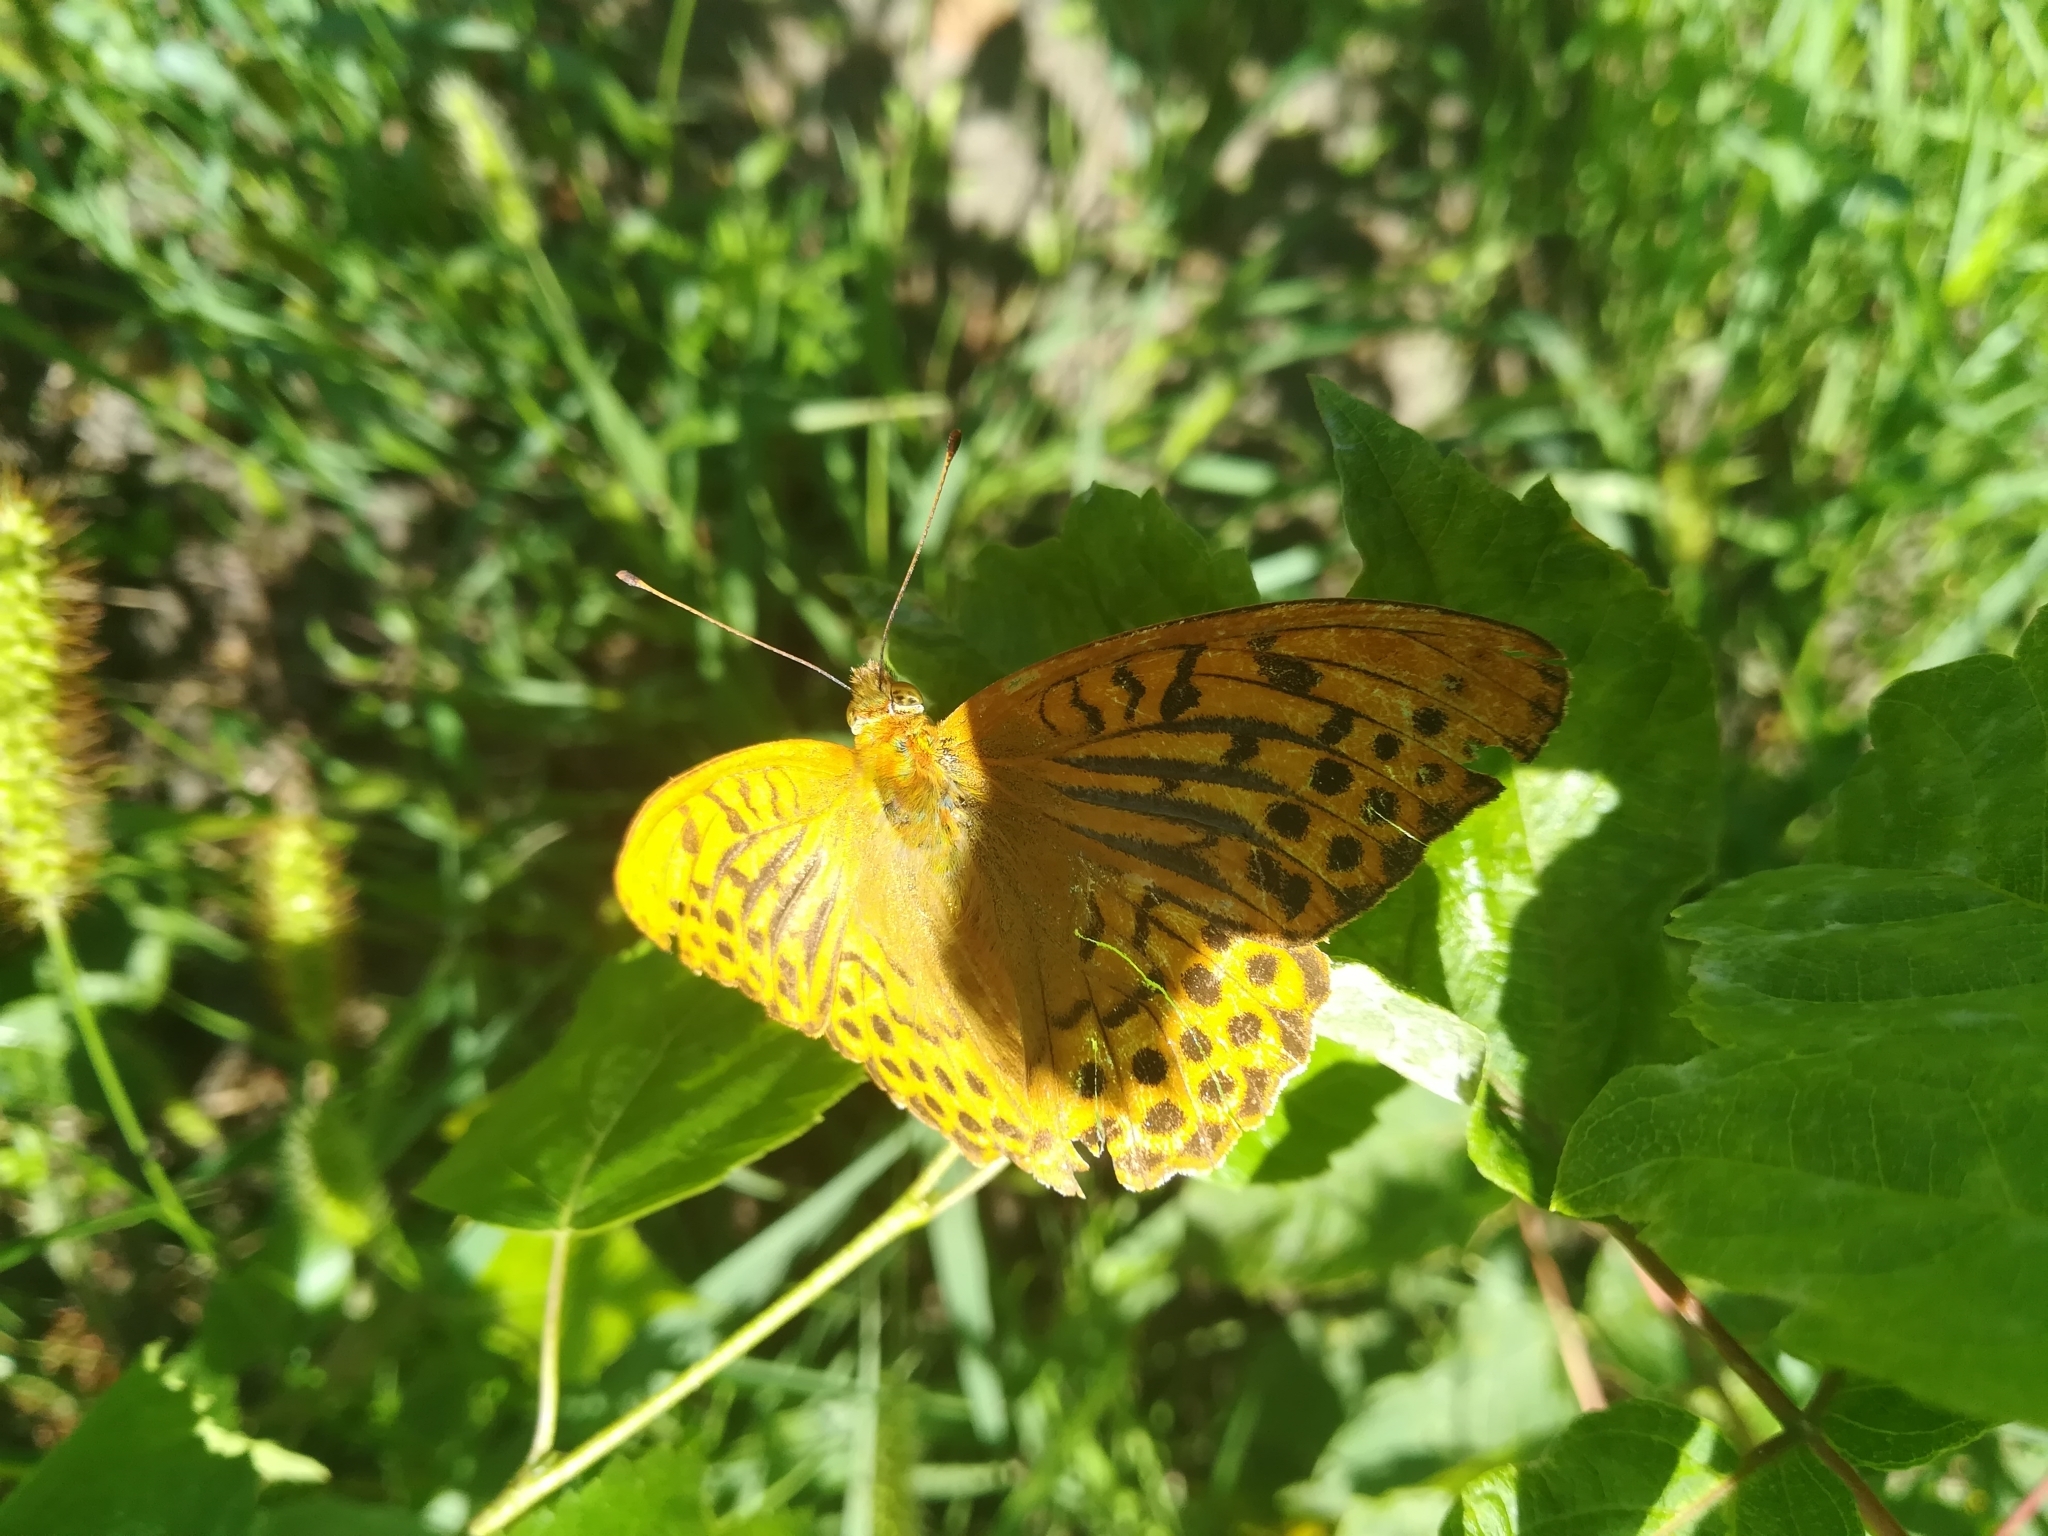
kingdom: Animalia
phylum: Arthropoda
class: Insecta
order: Lepidoptera
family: Nymphalidae
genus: Argynnis
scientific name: Argynnis paphia
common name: Silver-washed fritillary
